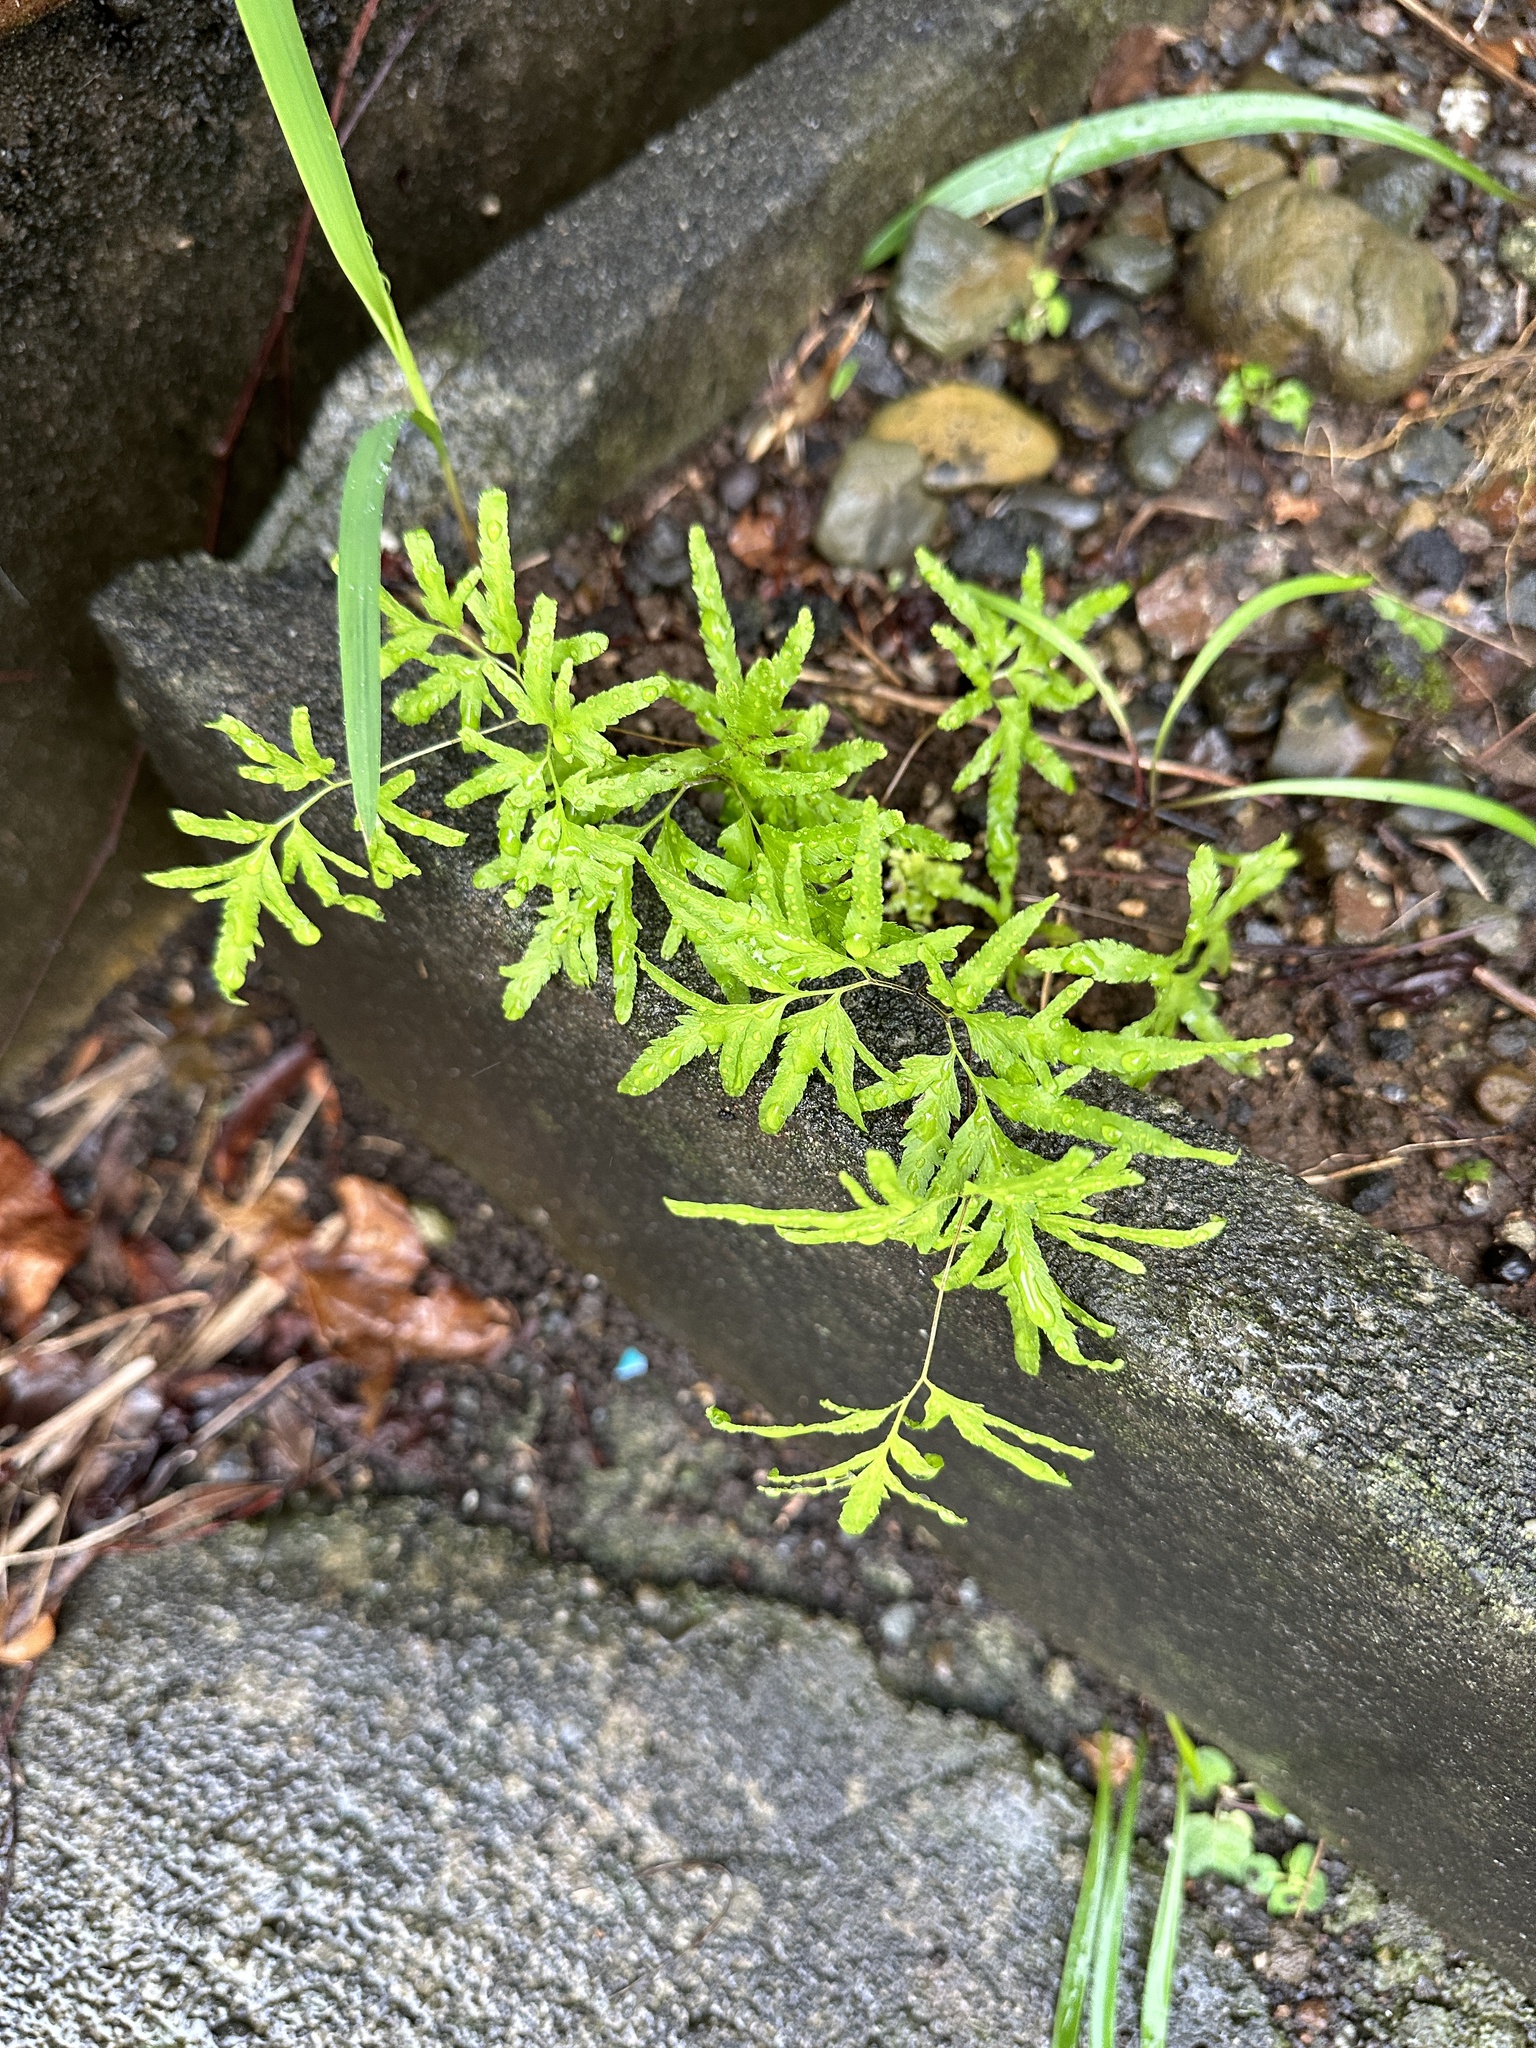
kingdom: Plantae
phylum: Tracheophyta
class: Polypodiopsida
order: Schizaeales
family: Lygodiaceae
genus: Lygodium
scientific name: Lygodium japonicum
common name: Japanese climbing fern
